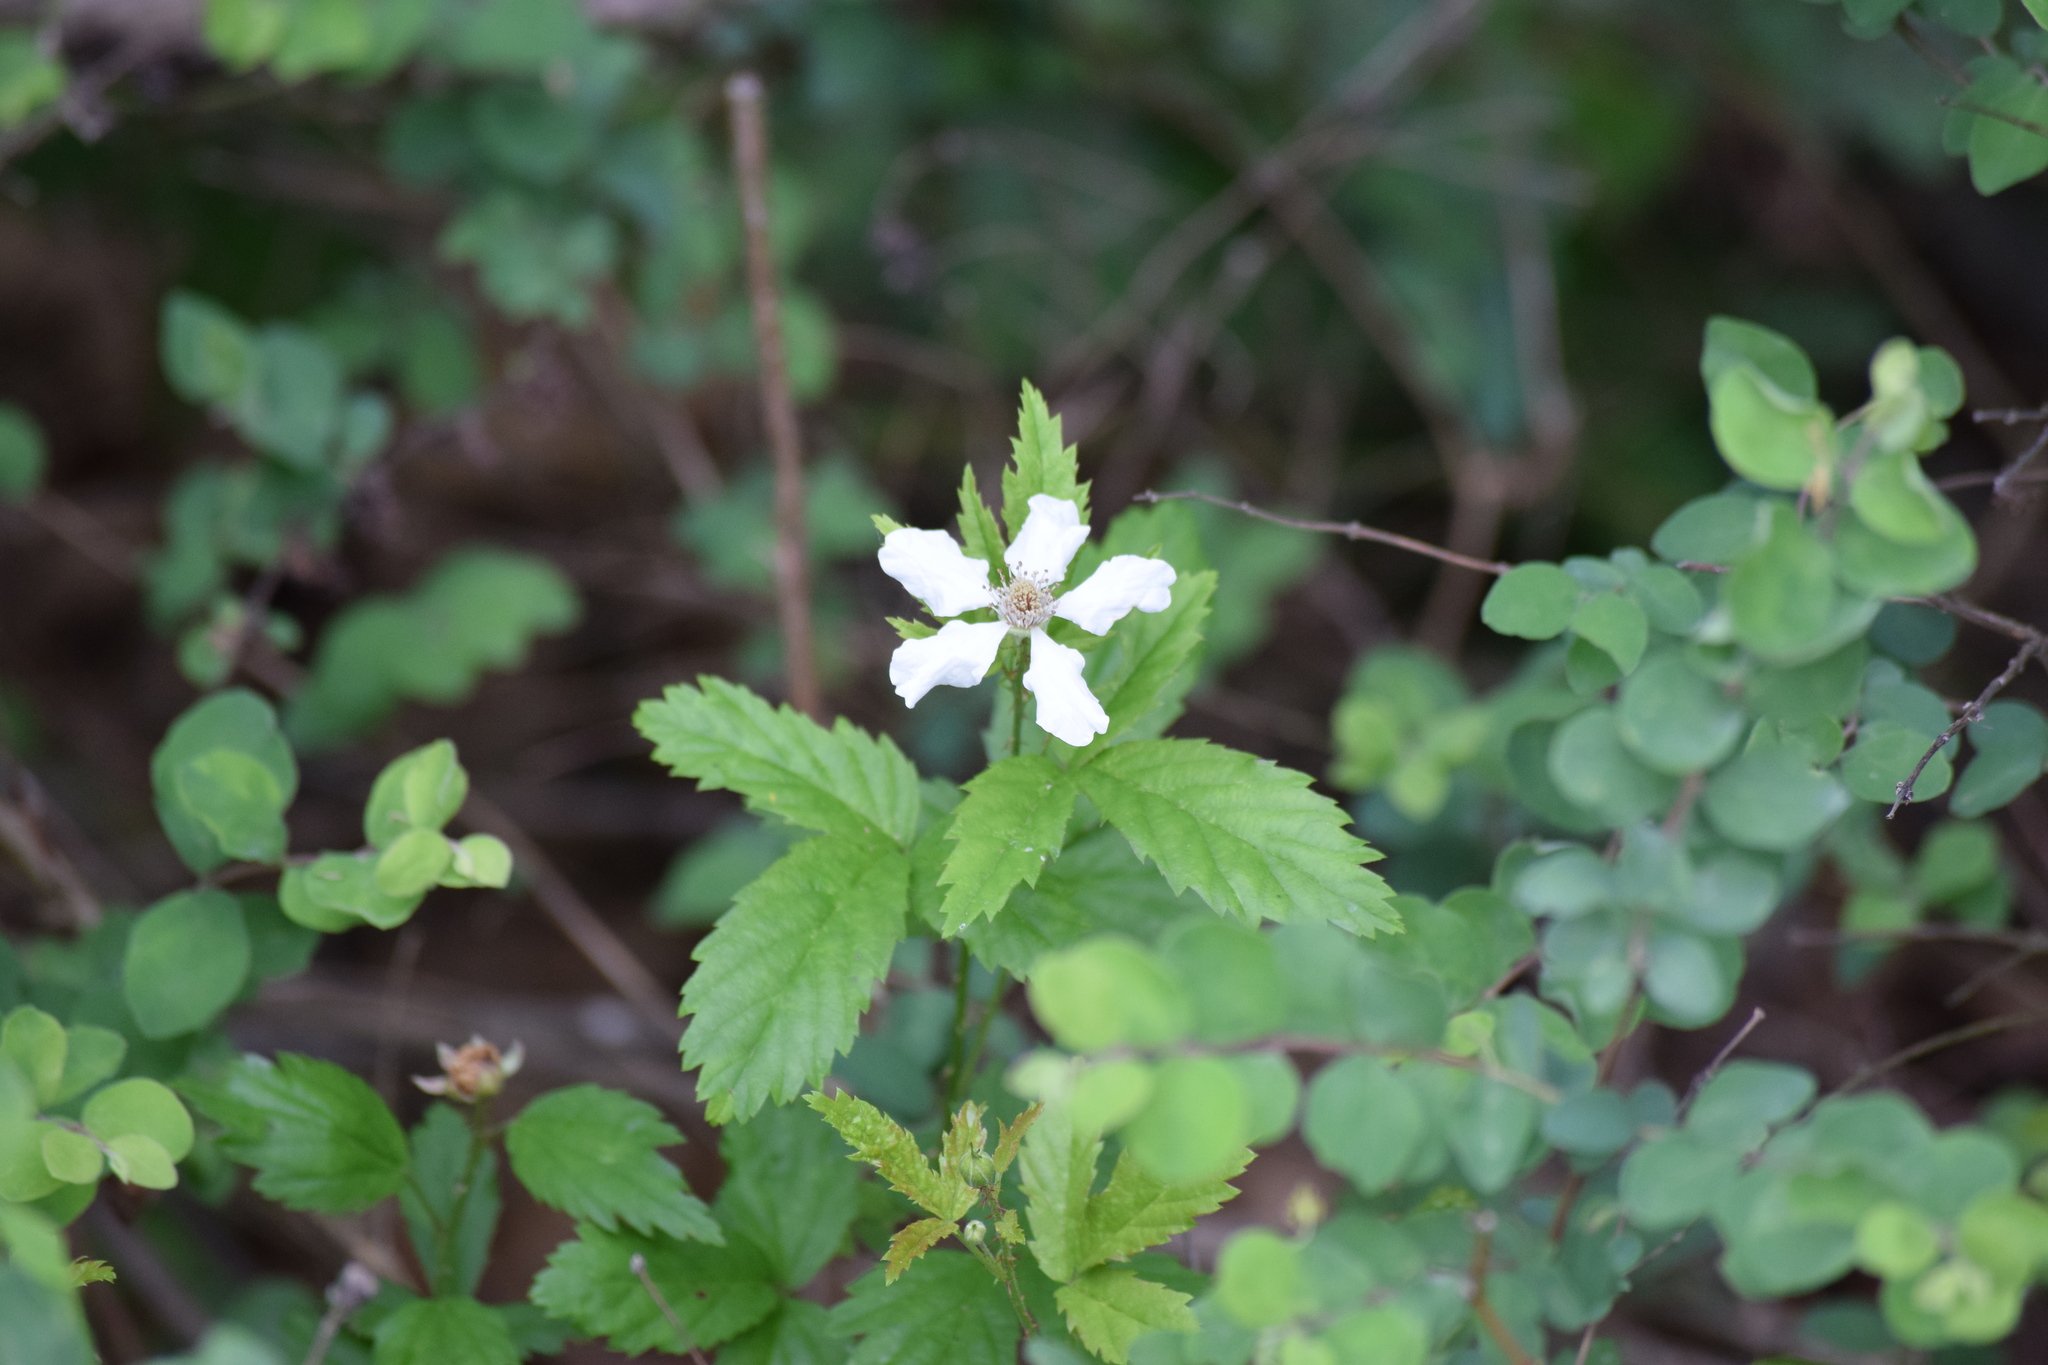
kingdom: Plantae
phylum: Tracheophyta
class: Magnoliopsida
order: Rosales
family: Rosaceae
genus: Rubus
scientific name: Rubus trivialis
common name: Southern dewberry
